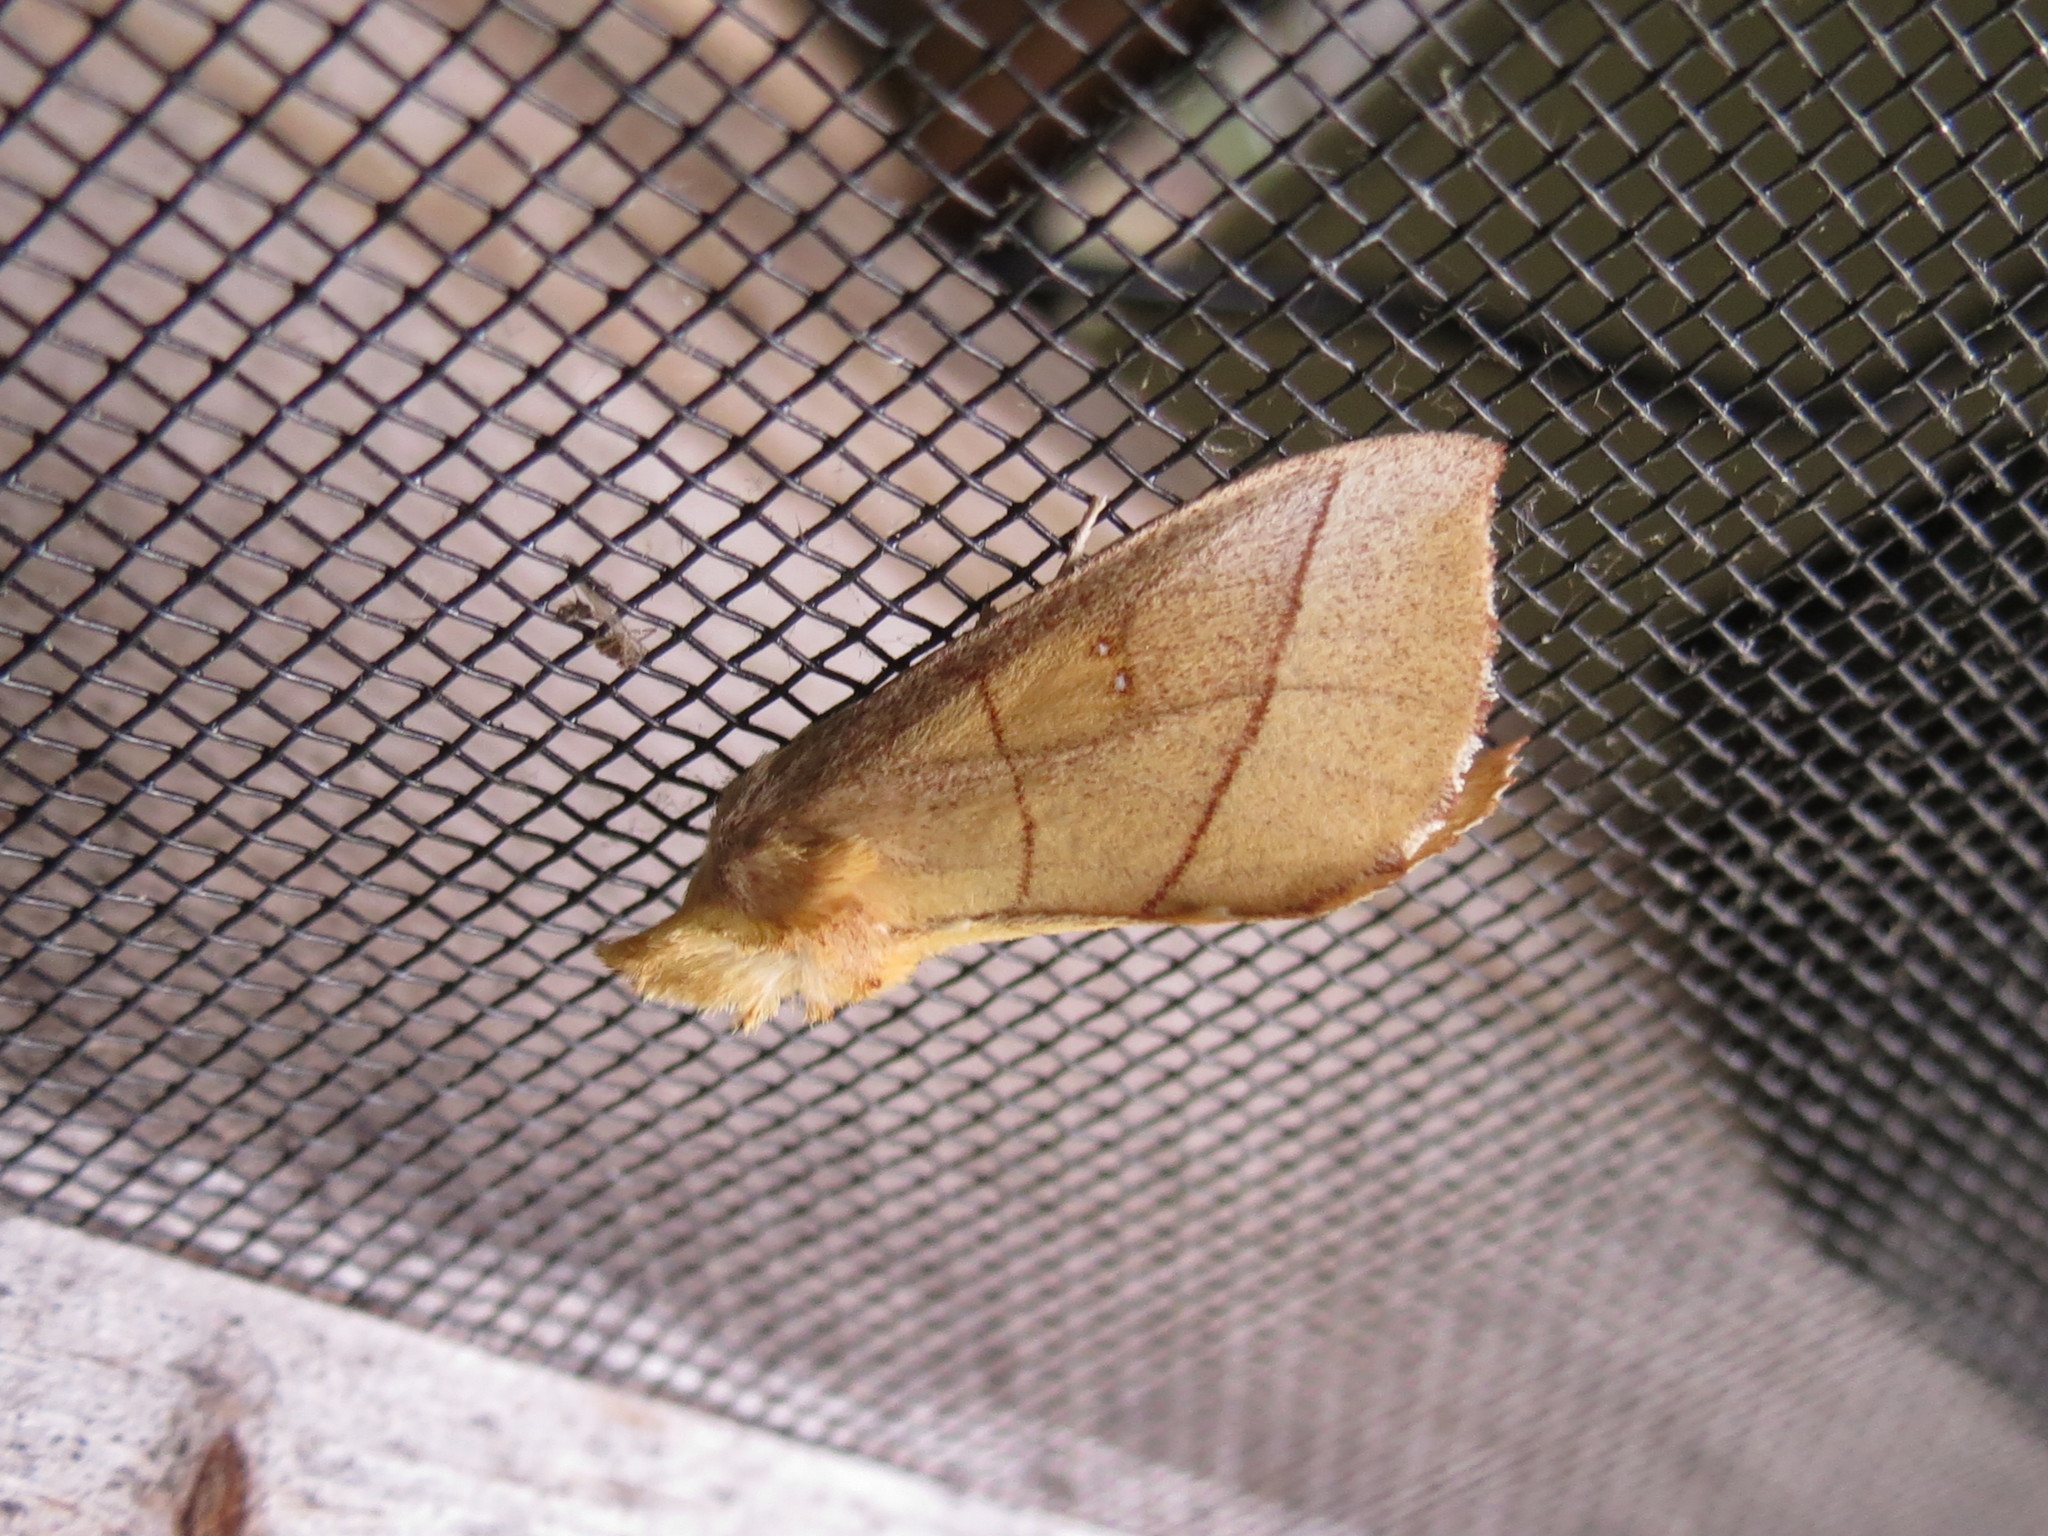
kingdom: Animalia
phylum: Arthropoda
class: Insecta
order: Lepidoptera
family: Notodontidae
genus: Nadata
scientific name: Nadata gibbosa
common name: White-dotted prominent
